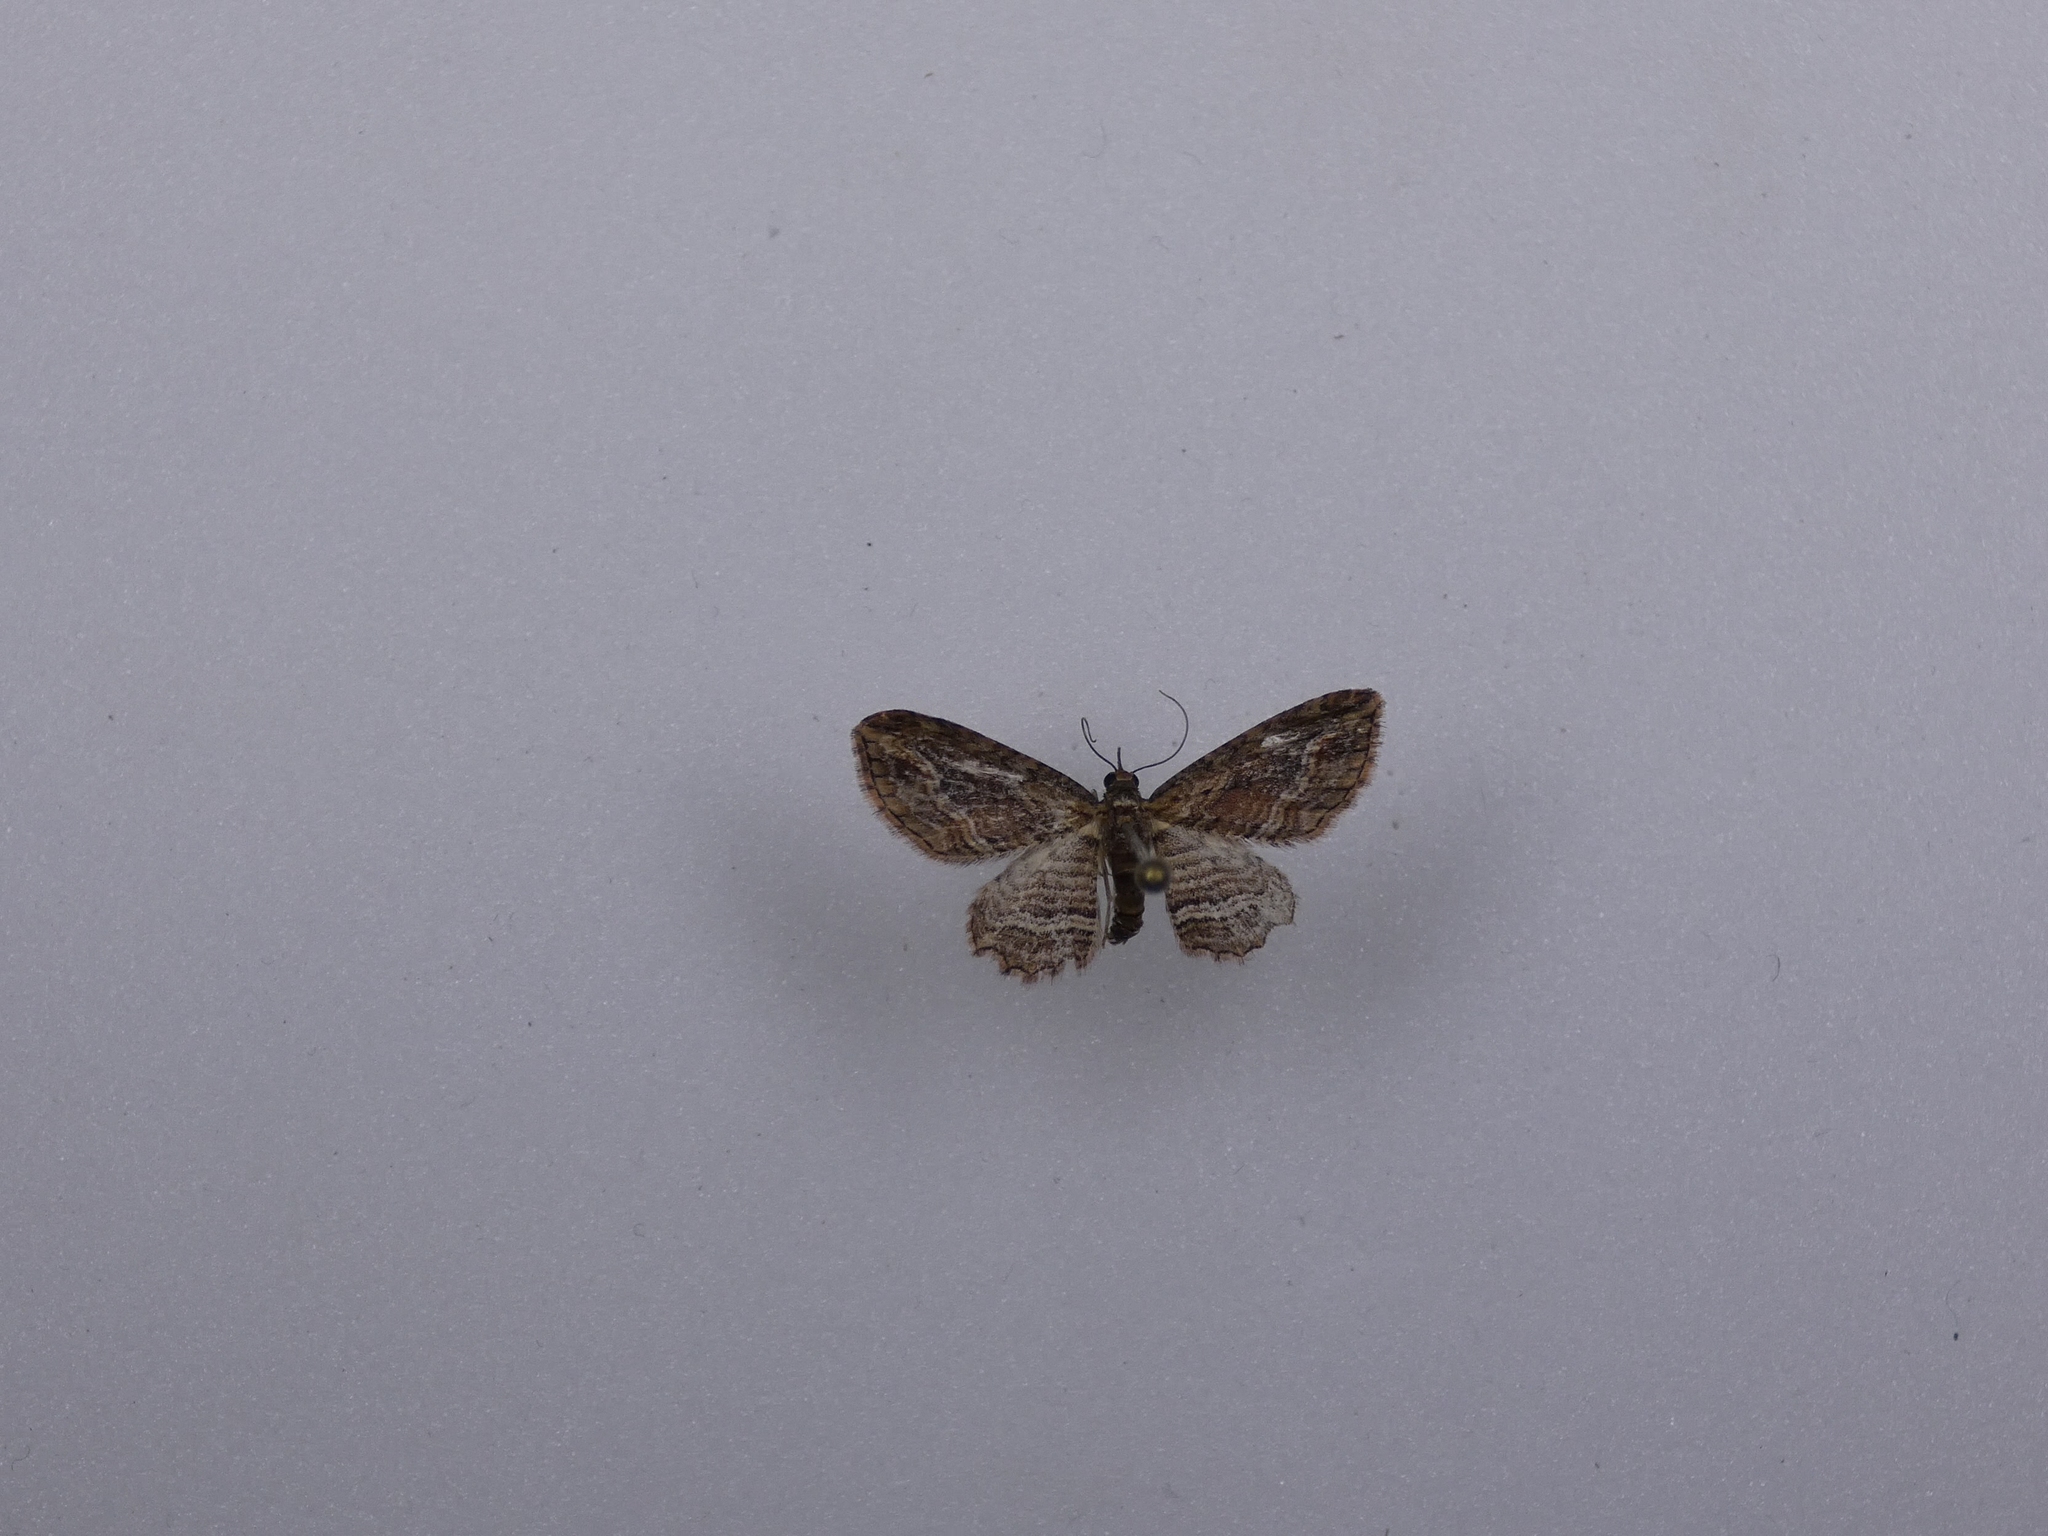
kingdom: Animalia
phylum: Arthropoda
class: Insecta
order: Lepidoptera
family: Geometridae
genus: Chloroclystis
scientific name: Chloroclystis filata
